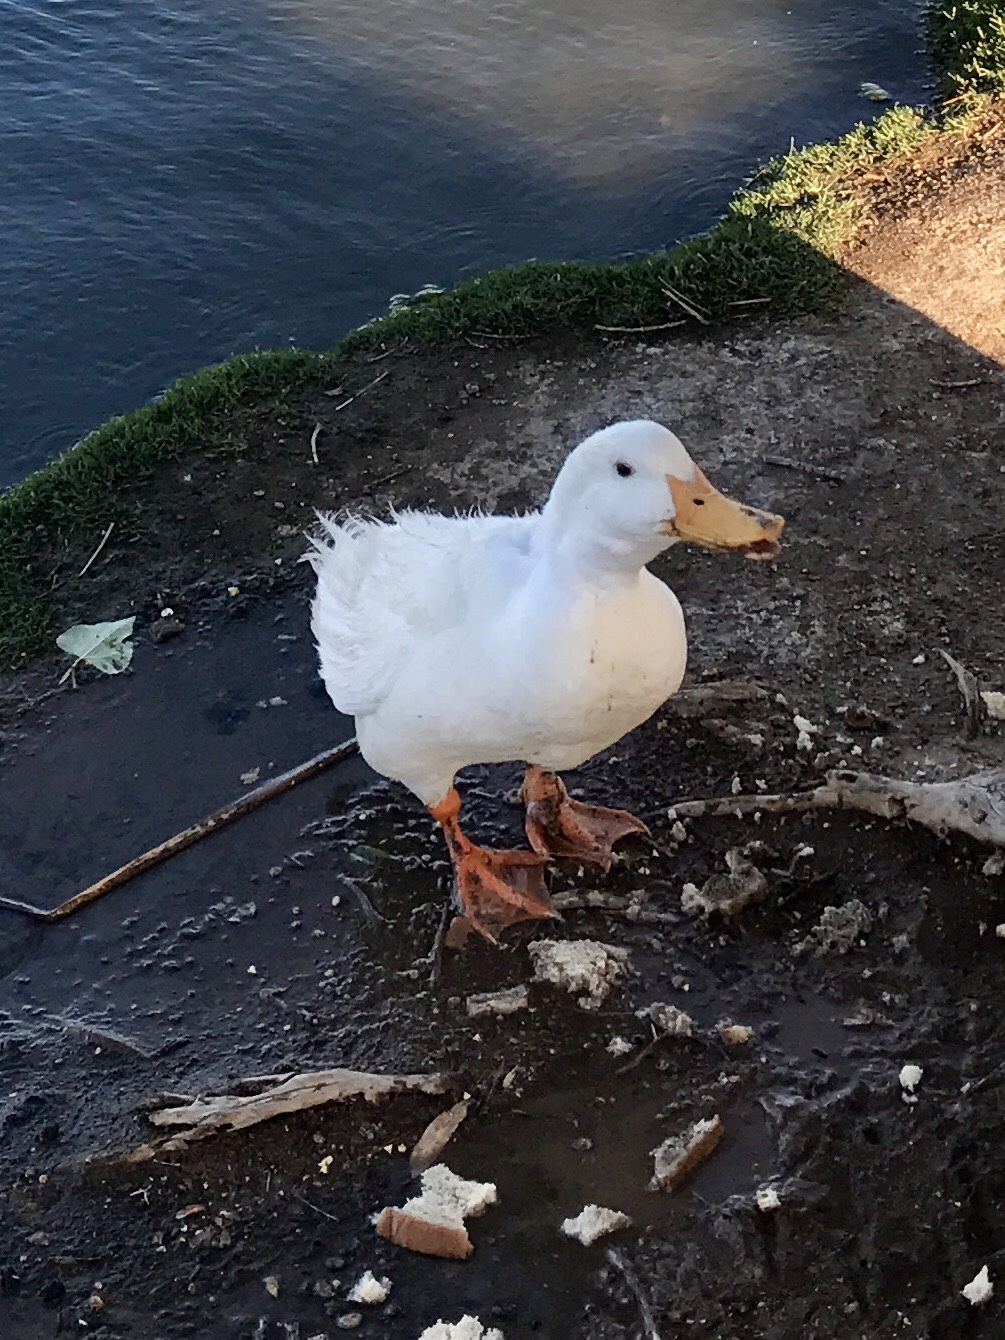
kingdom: Animalia
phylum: Chordata
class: Aves
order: Anseriformes
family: Anatidae
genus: Anas
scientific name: Anas platyrhynchos
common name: Mallard
